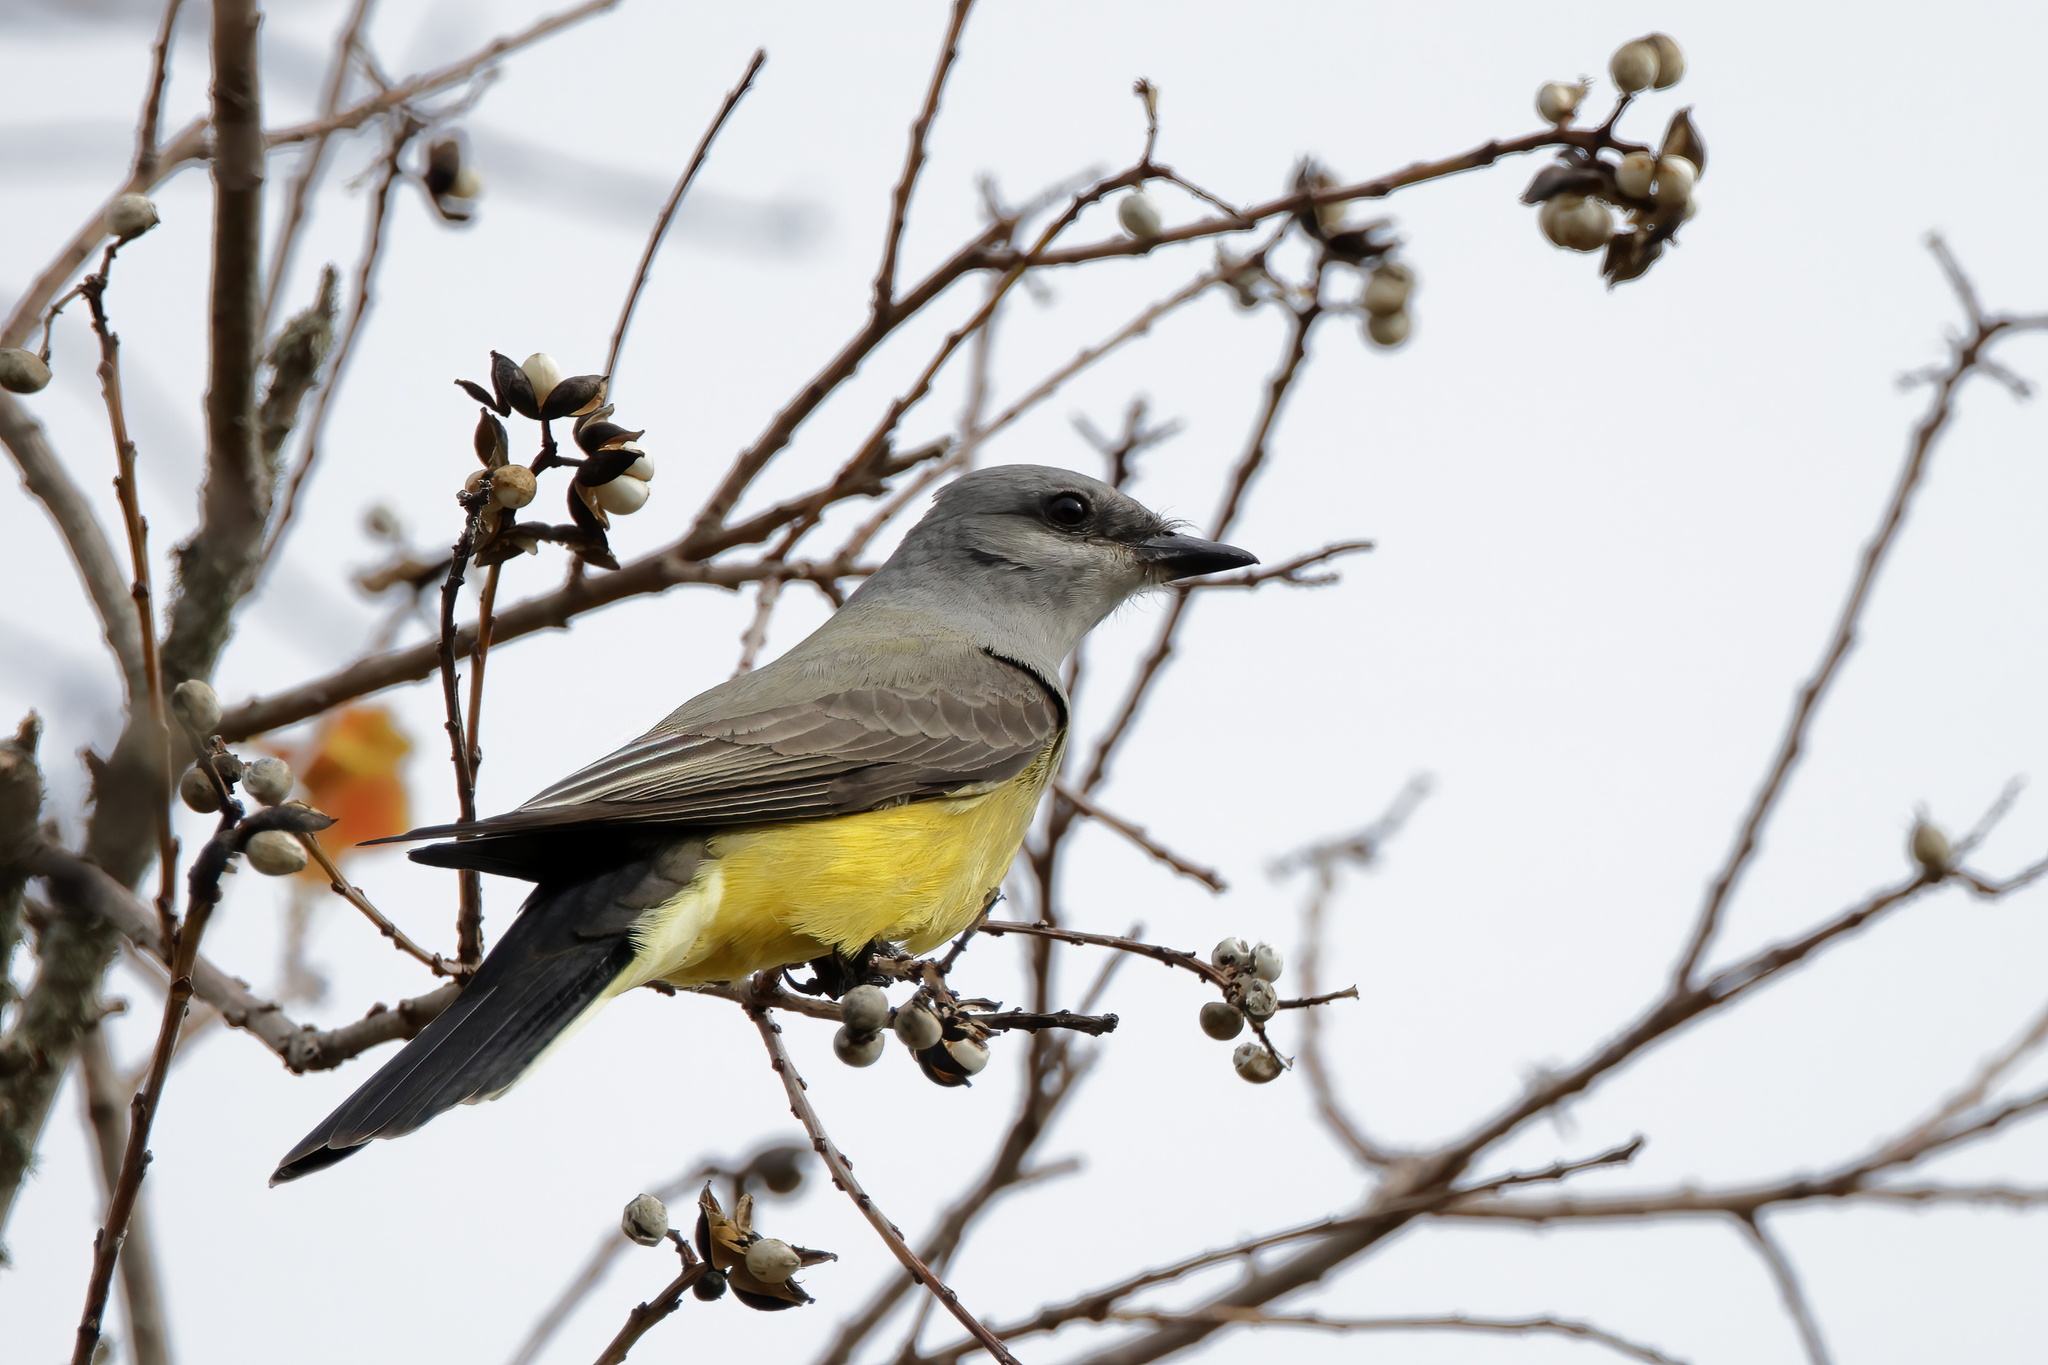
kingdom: Animalia
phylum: Chordata
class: Aves
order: Passeriformes
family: Tyrannidae
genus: Tyrannus
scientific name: Tyrannus verticalis
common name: Western kingbird
